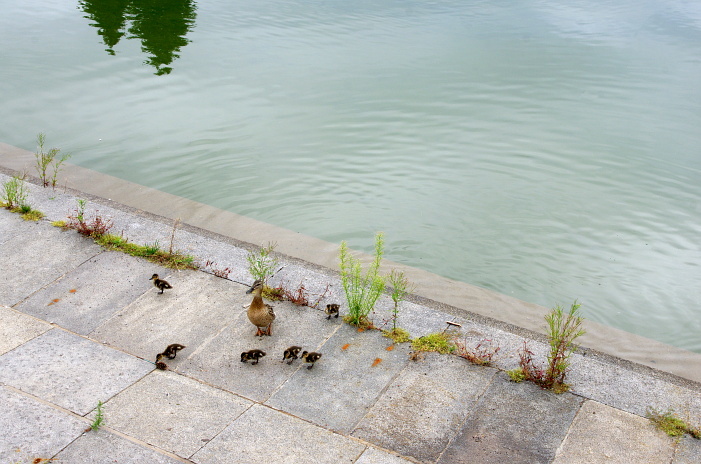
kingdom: Animalia
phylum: Chordata
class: Aves
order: Anseriformes
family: Anatidae
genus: Anas
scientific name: Anas platyrhynchos
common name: Mallard
